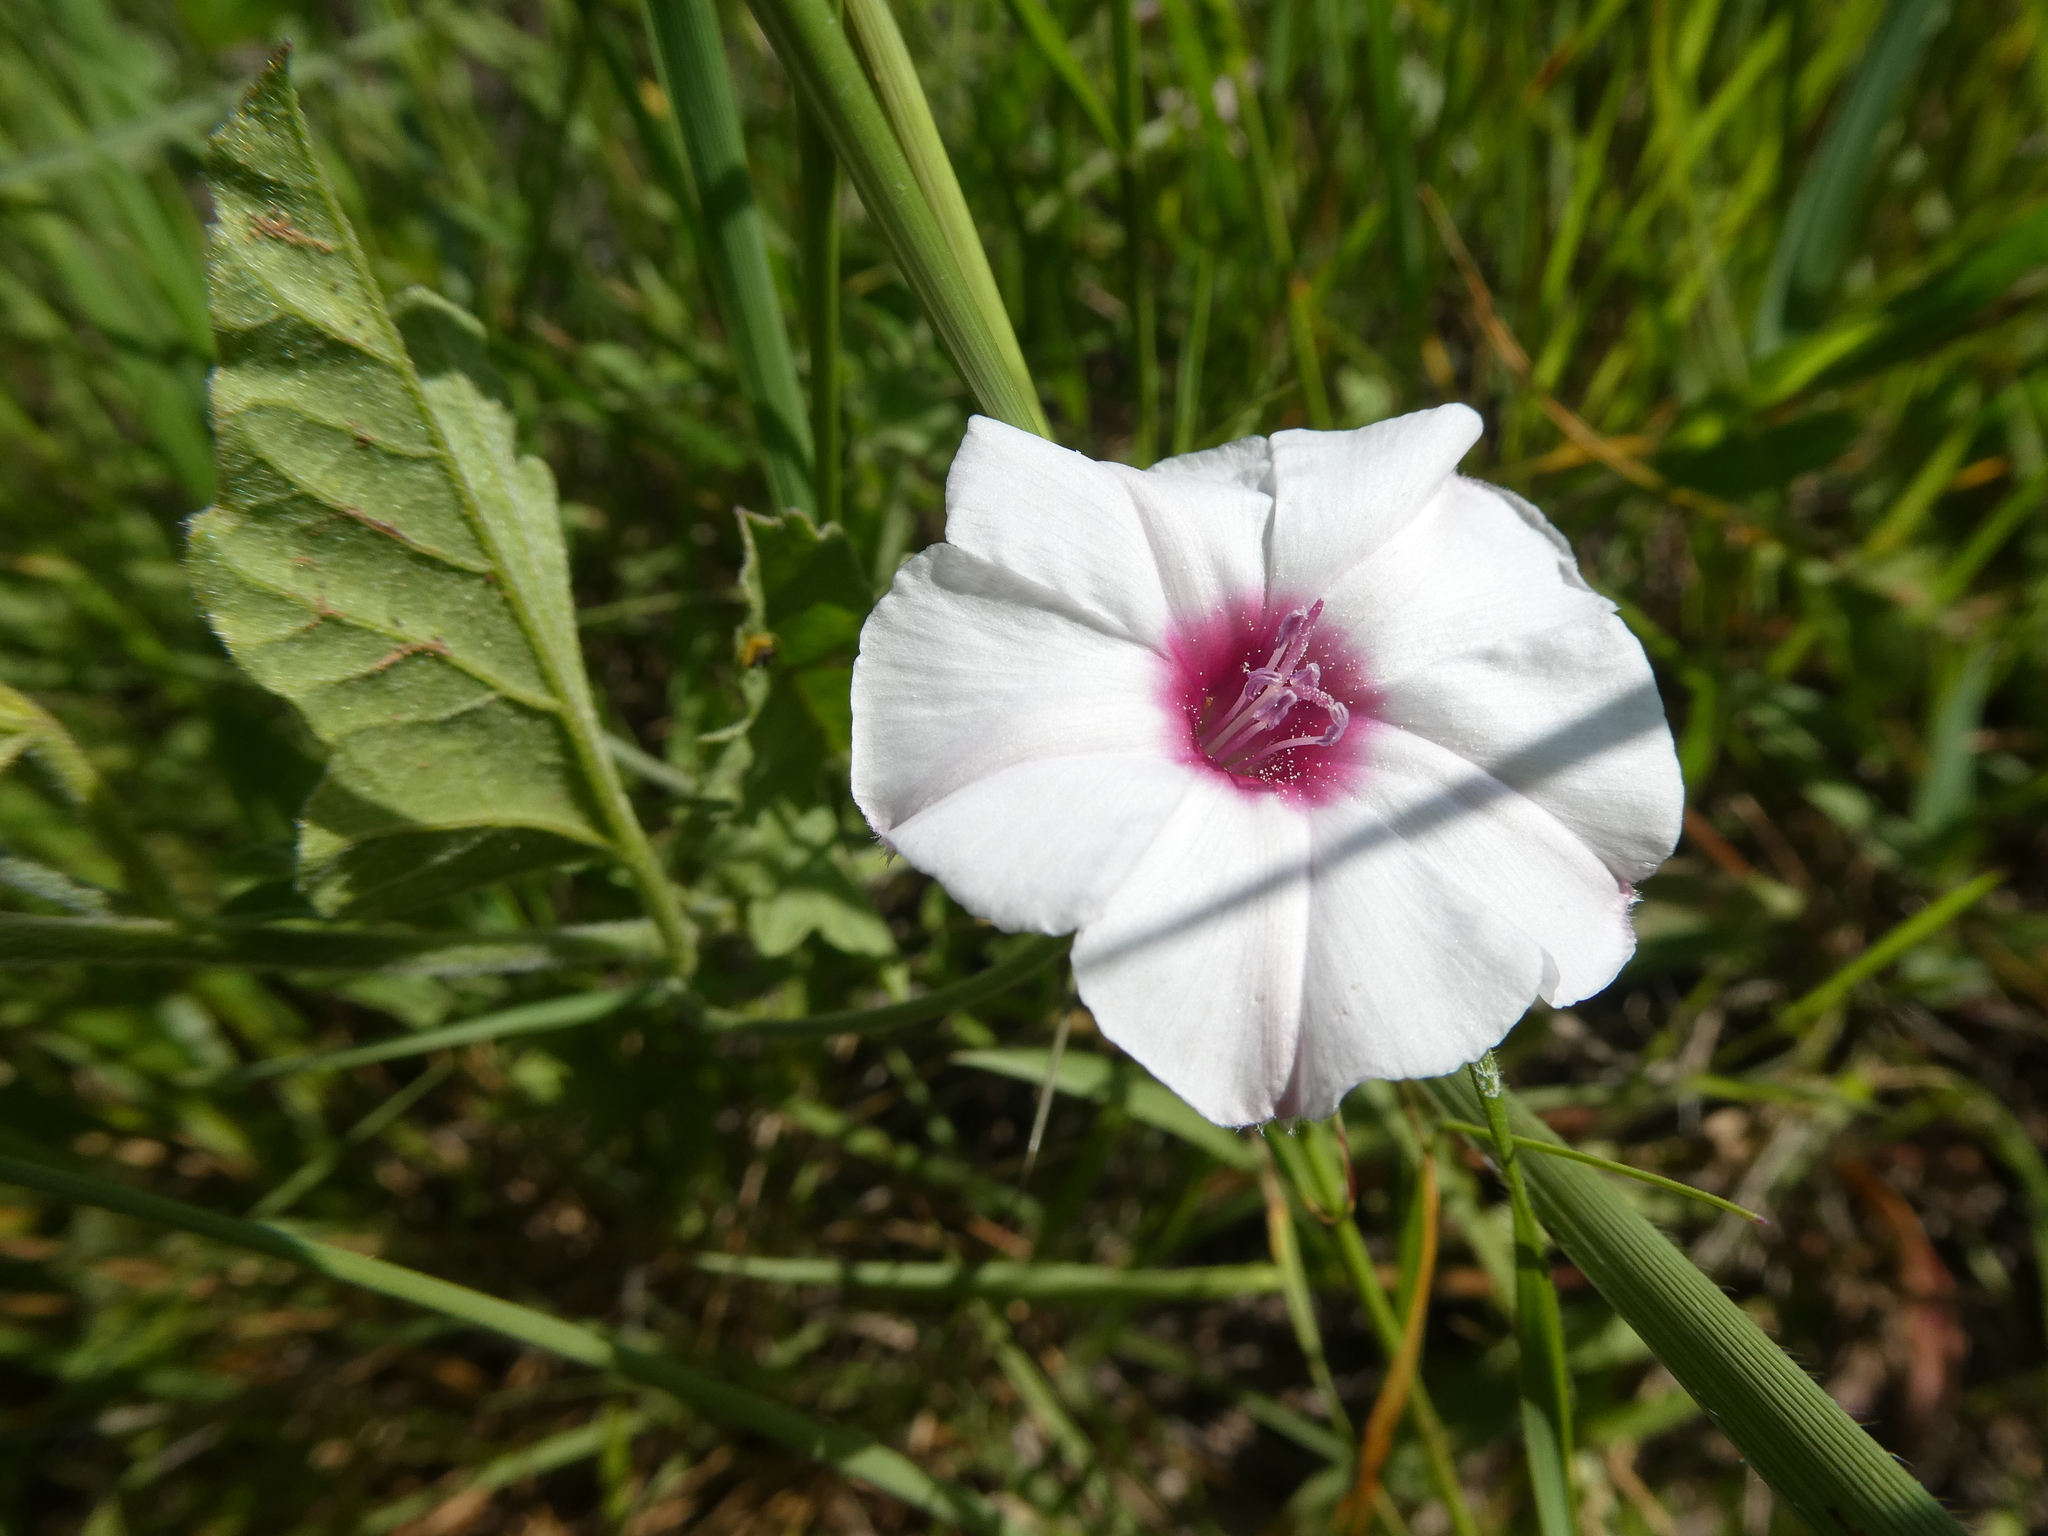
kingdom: Plantae
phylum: Tracheophyta
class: Magnoliopsida
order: Solanales
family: Convolvulaceae
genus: Convolvulus
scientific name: Convolvulus equitans
